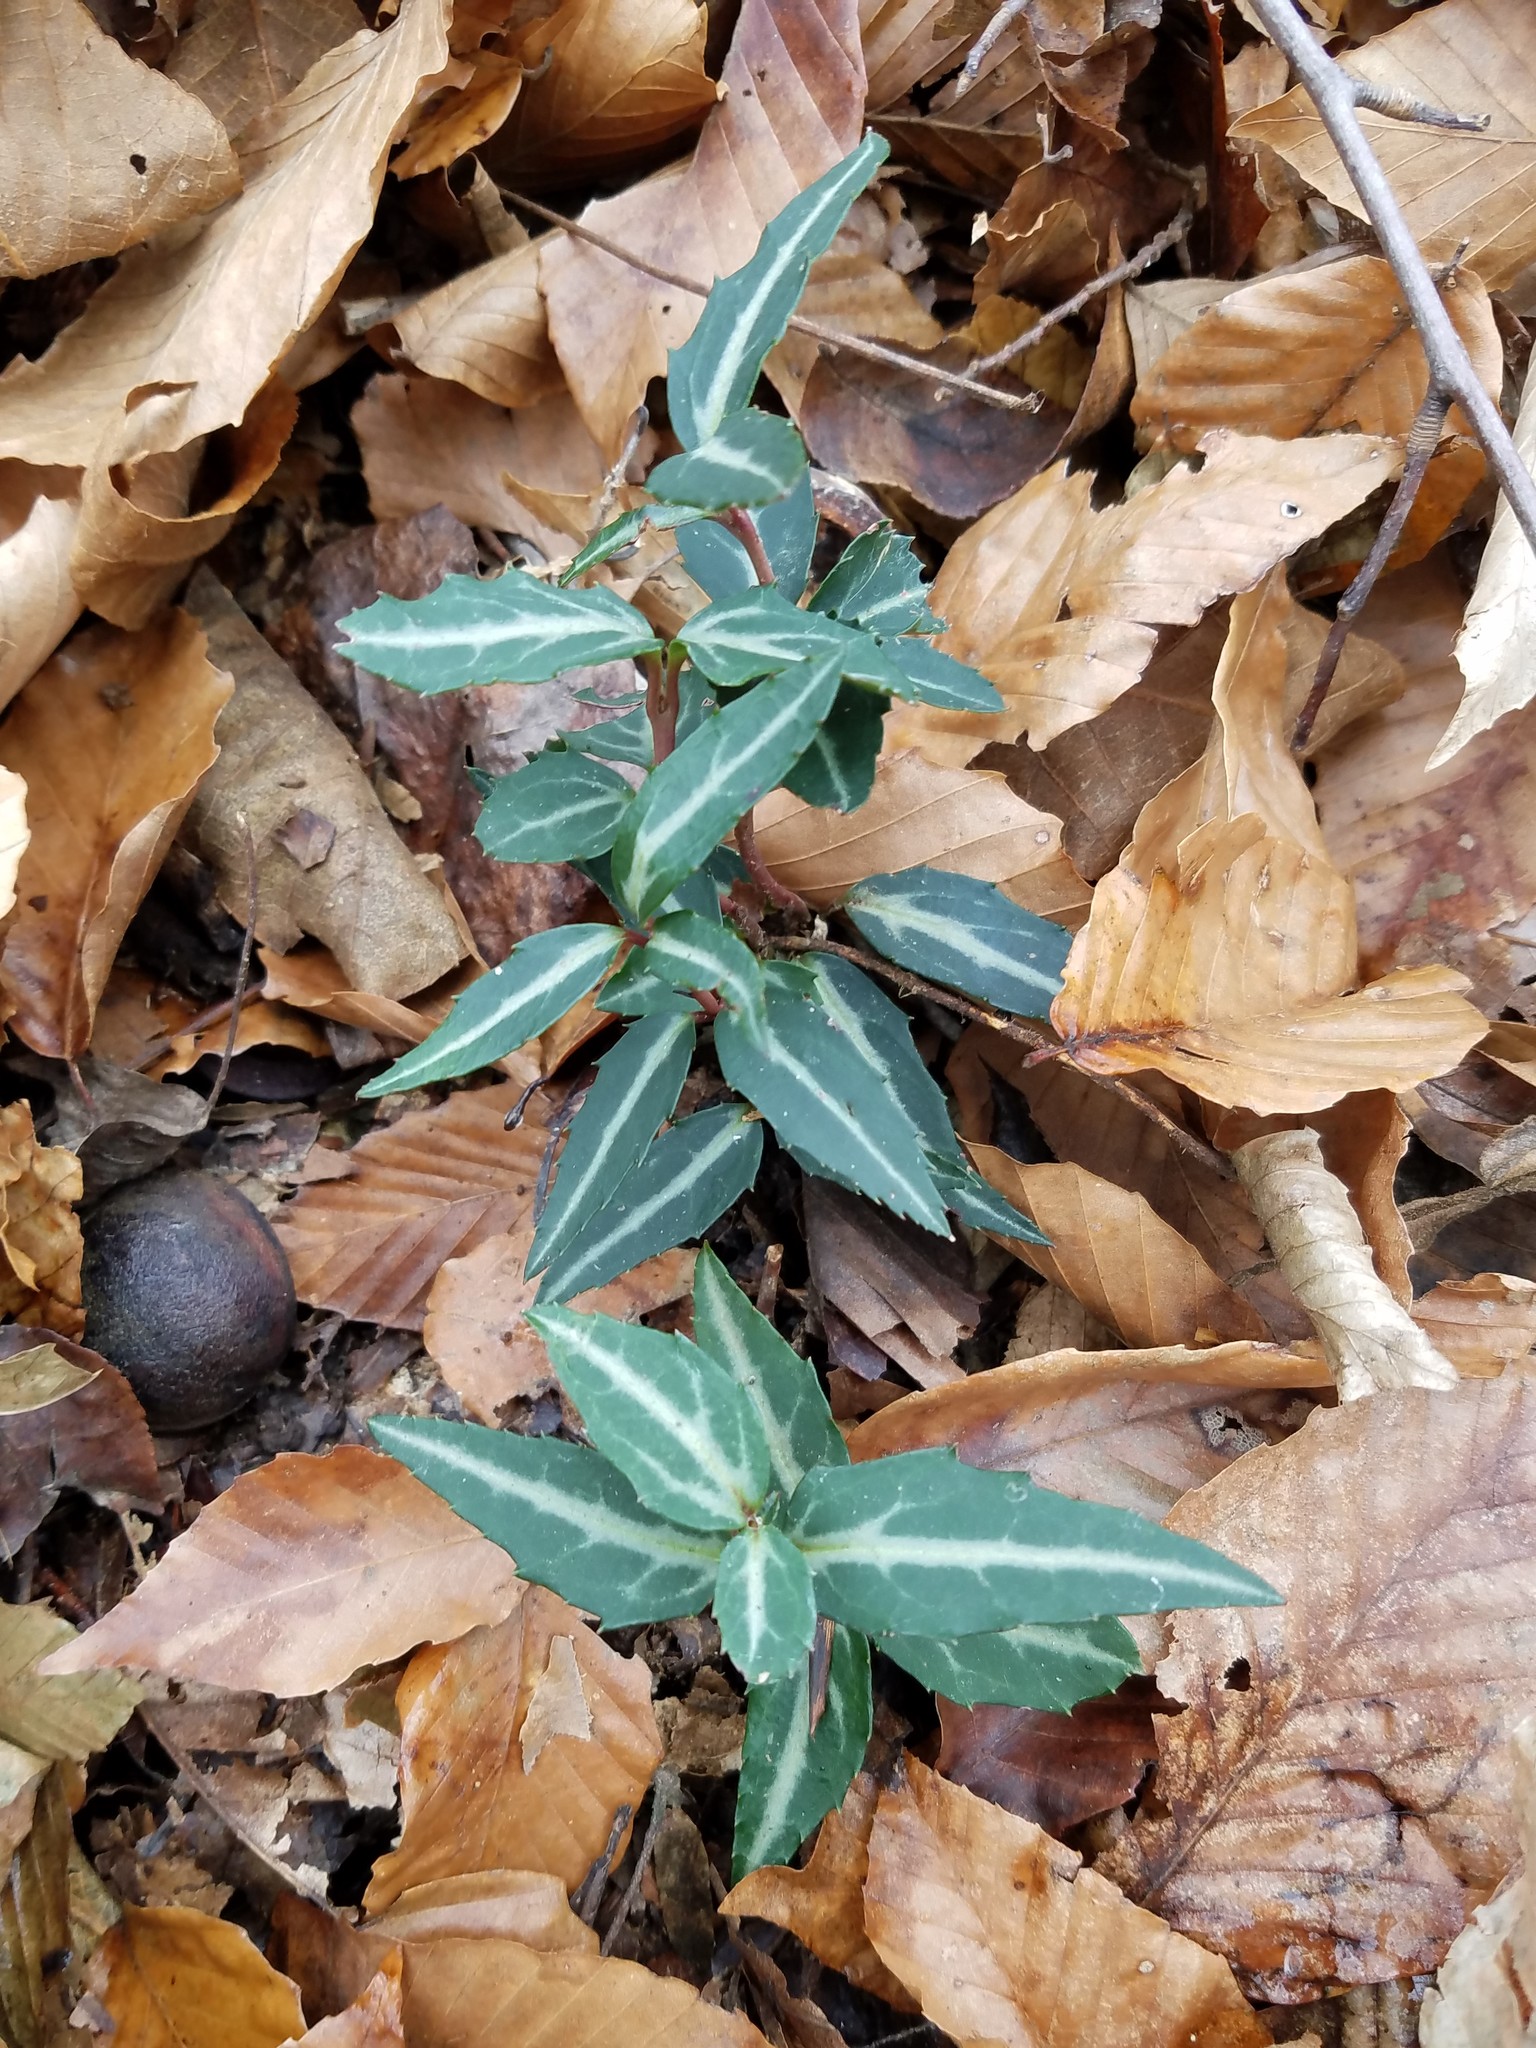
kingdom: Plantae
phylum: Tracheophyta
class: Magnoliopsida
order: Ericales
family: Ericaceae
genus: Chimaphila
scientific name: Chimaphila maculata
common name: Spotted pipsissewa
